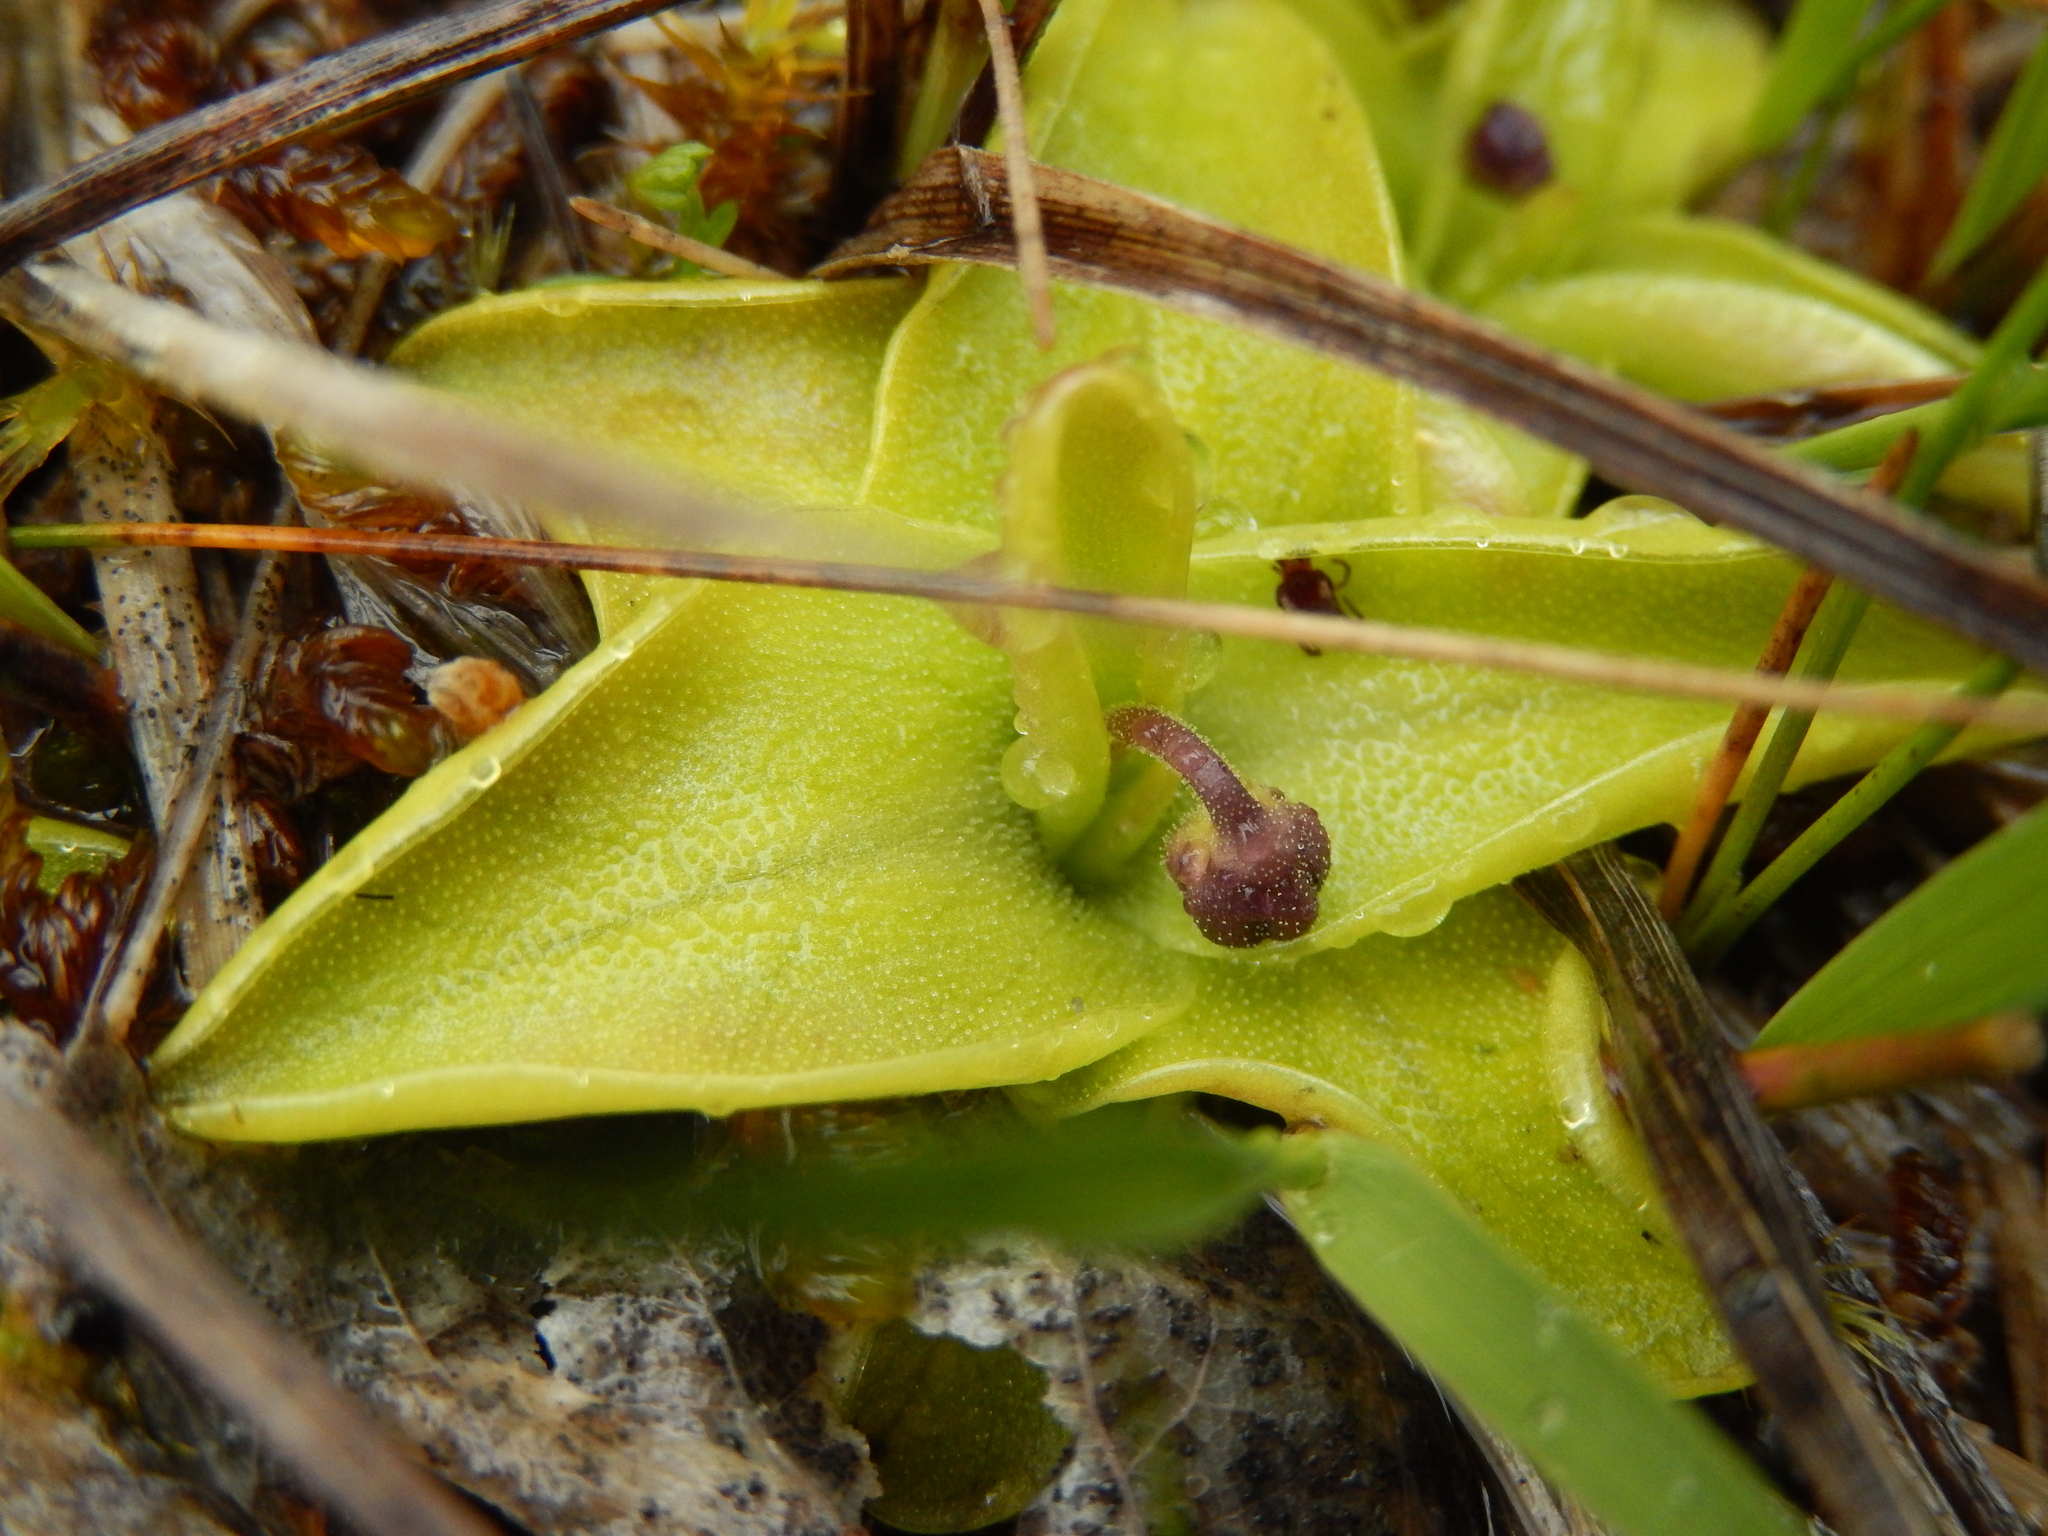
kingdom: Plantae
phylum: Tracheophyta
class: Magnoliopsida
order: Lamiales
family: Lentibulariaceae
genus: Pinguicula
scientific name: Pinguicula vulgaris
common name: Common butterwort
